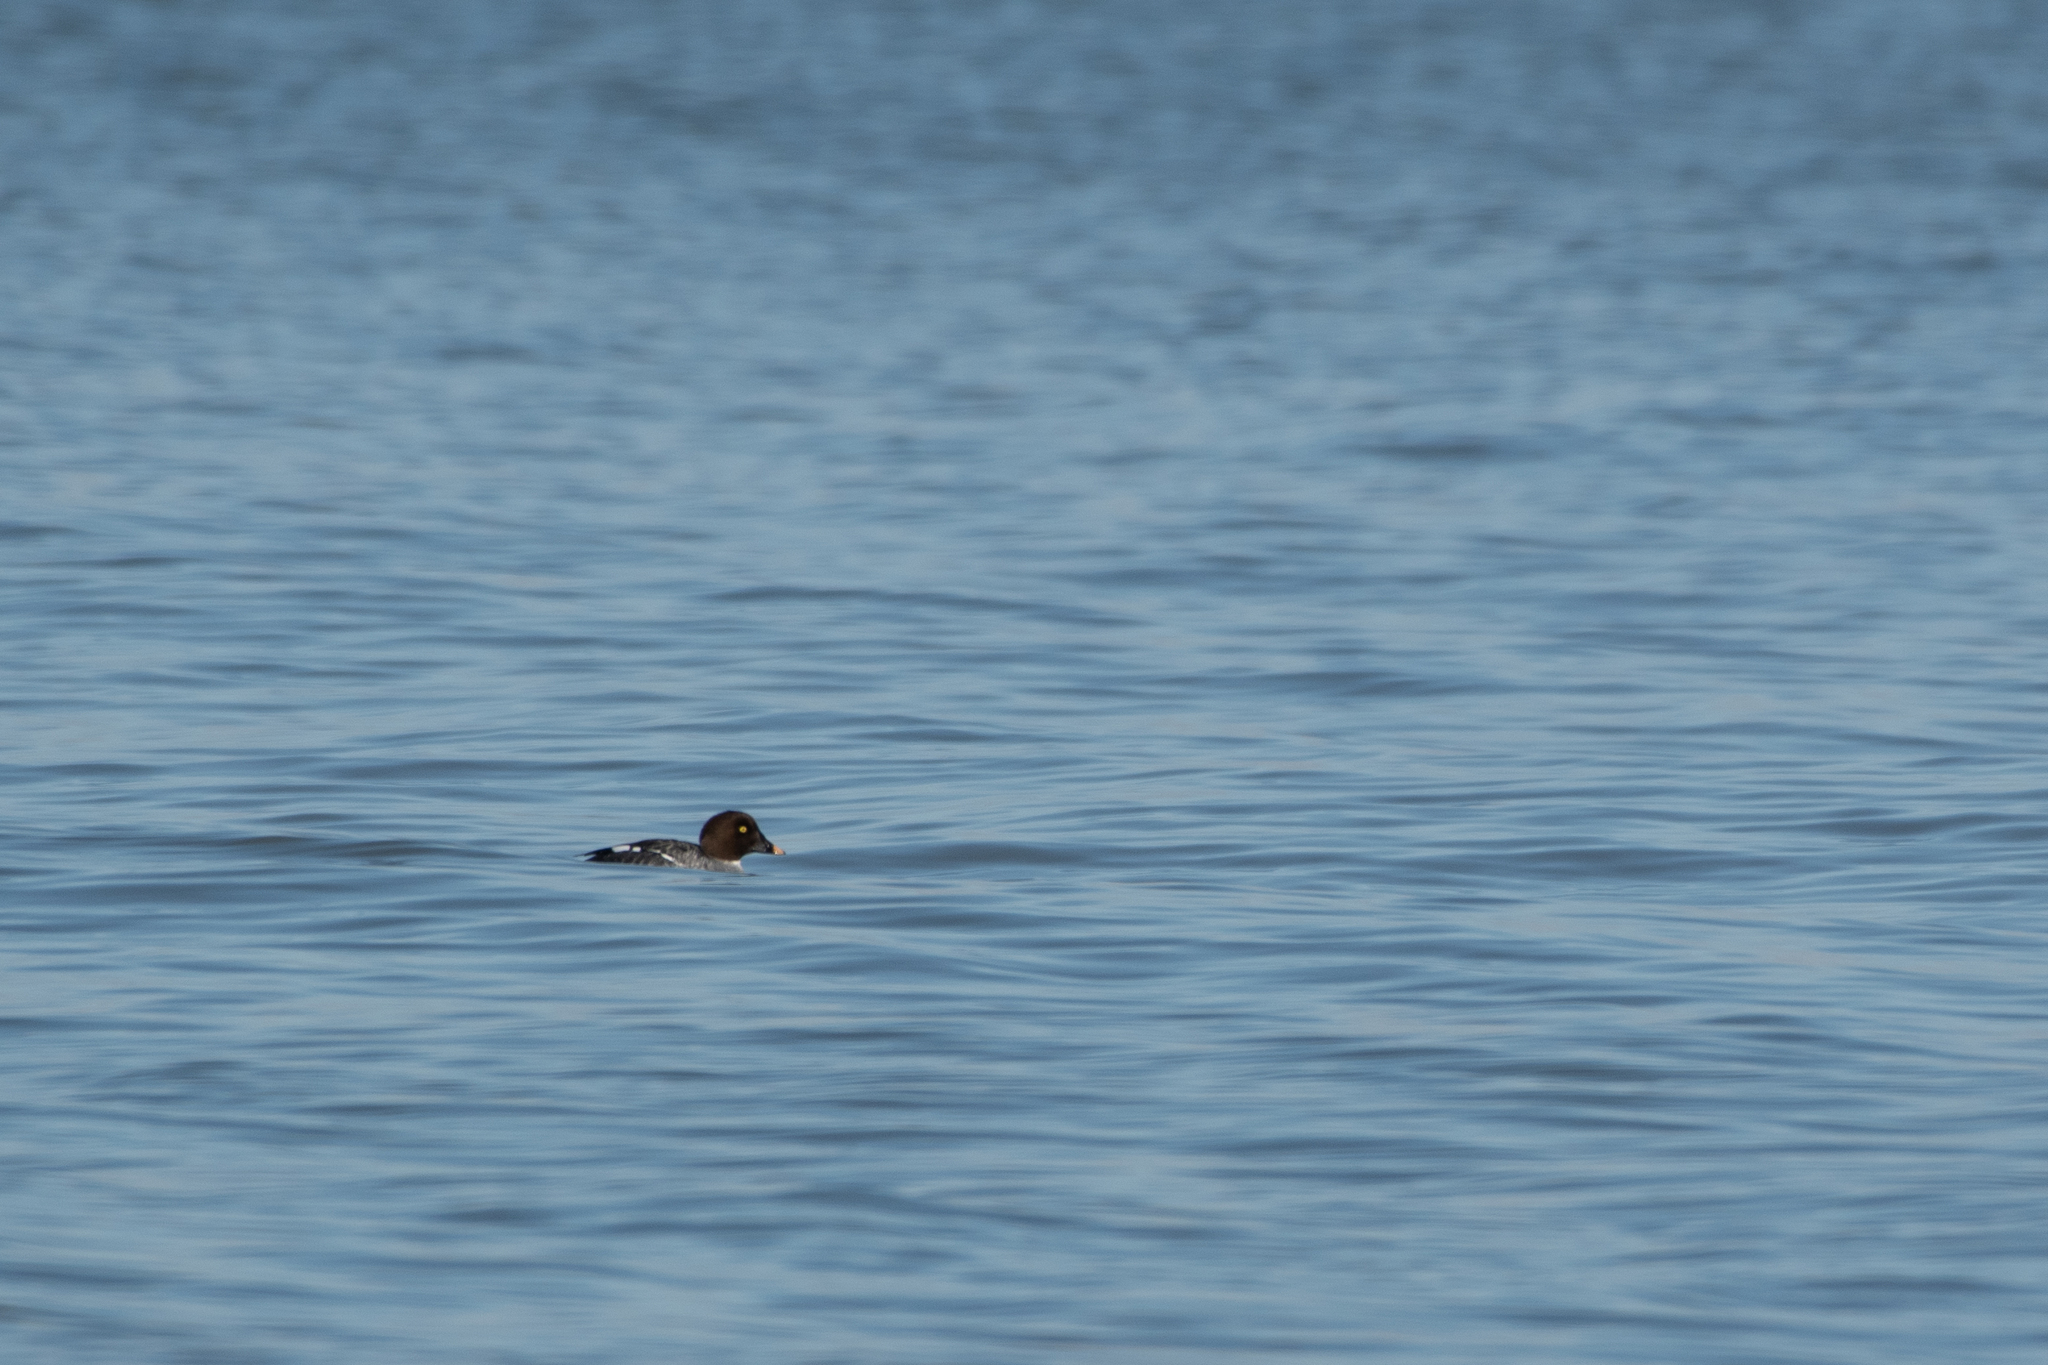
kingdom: Animalia
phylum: Chordata
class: Aves
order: Anseriformes
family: Anatidae
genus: Bucephala
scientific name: Bucephala clangula
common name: Common goldeneye
